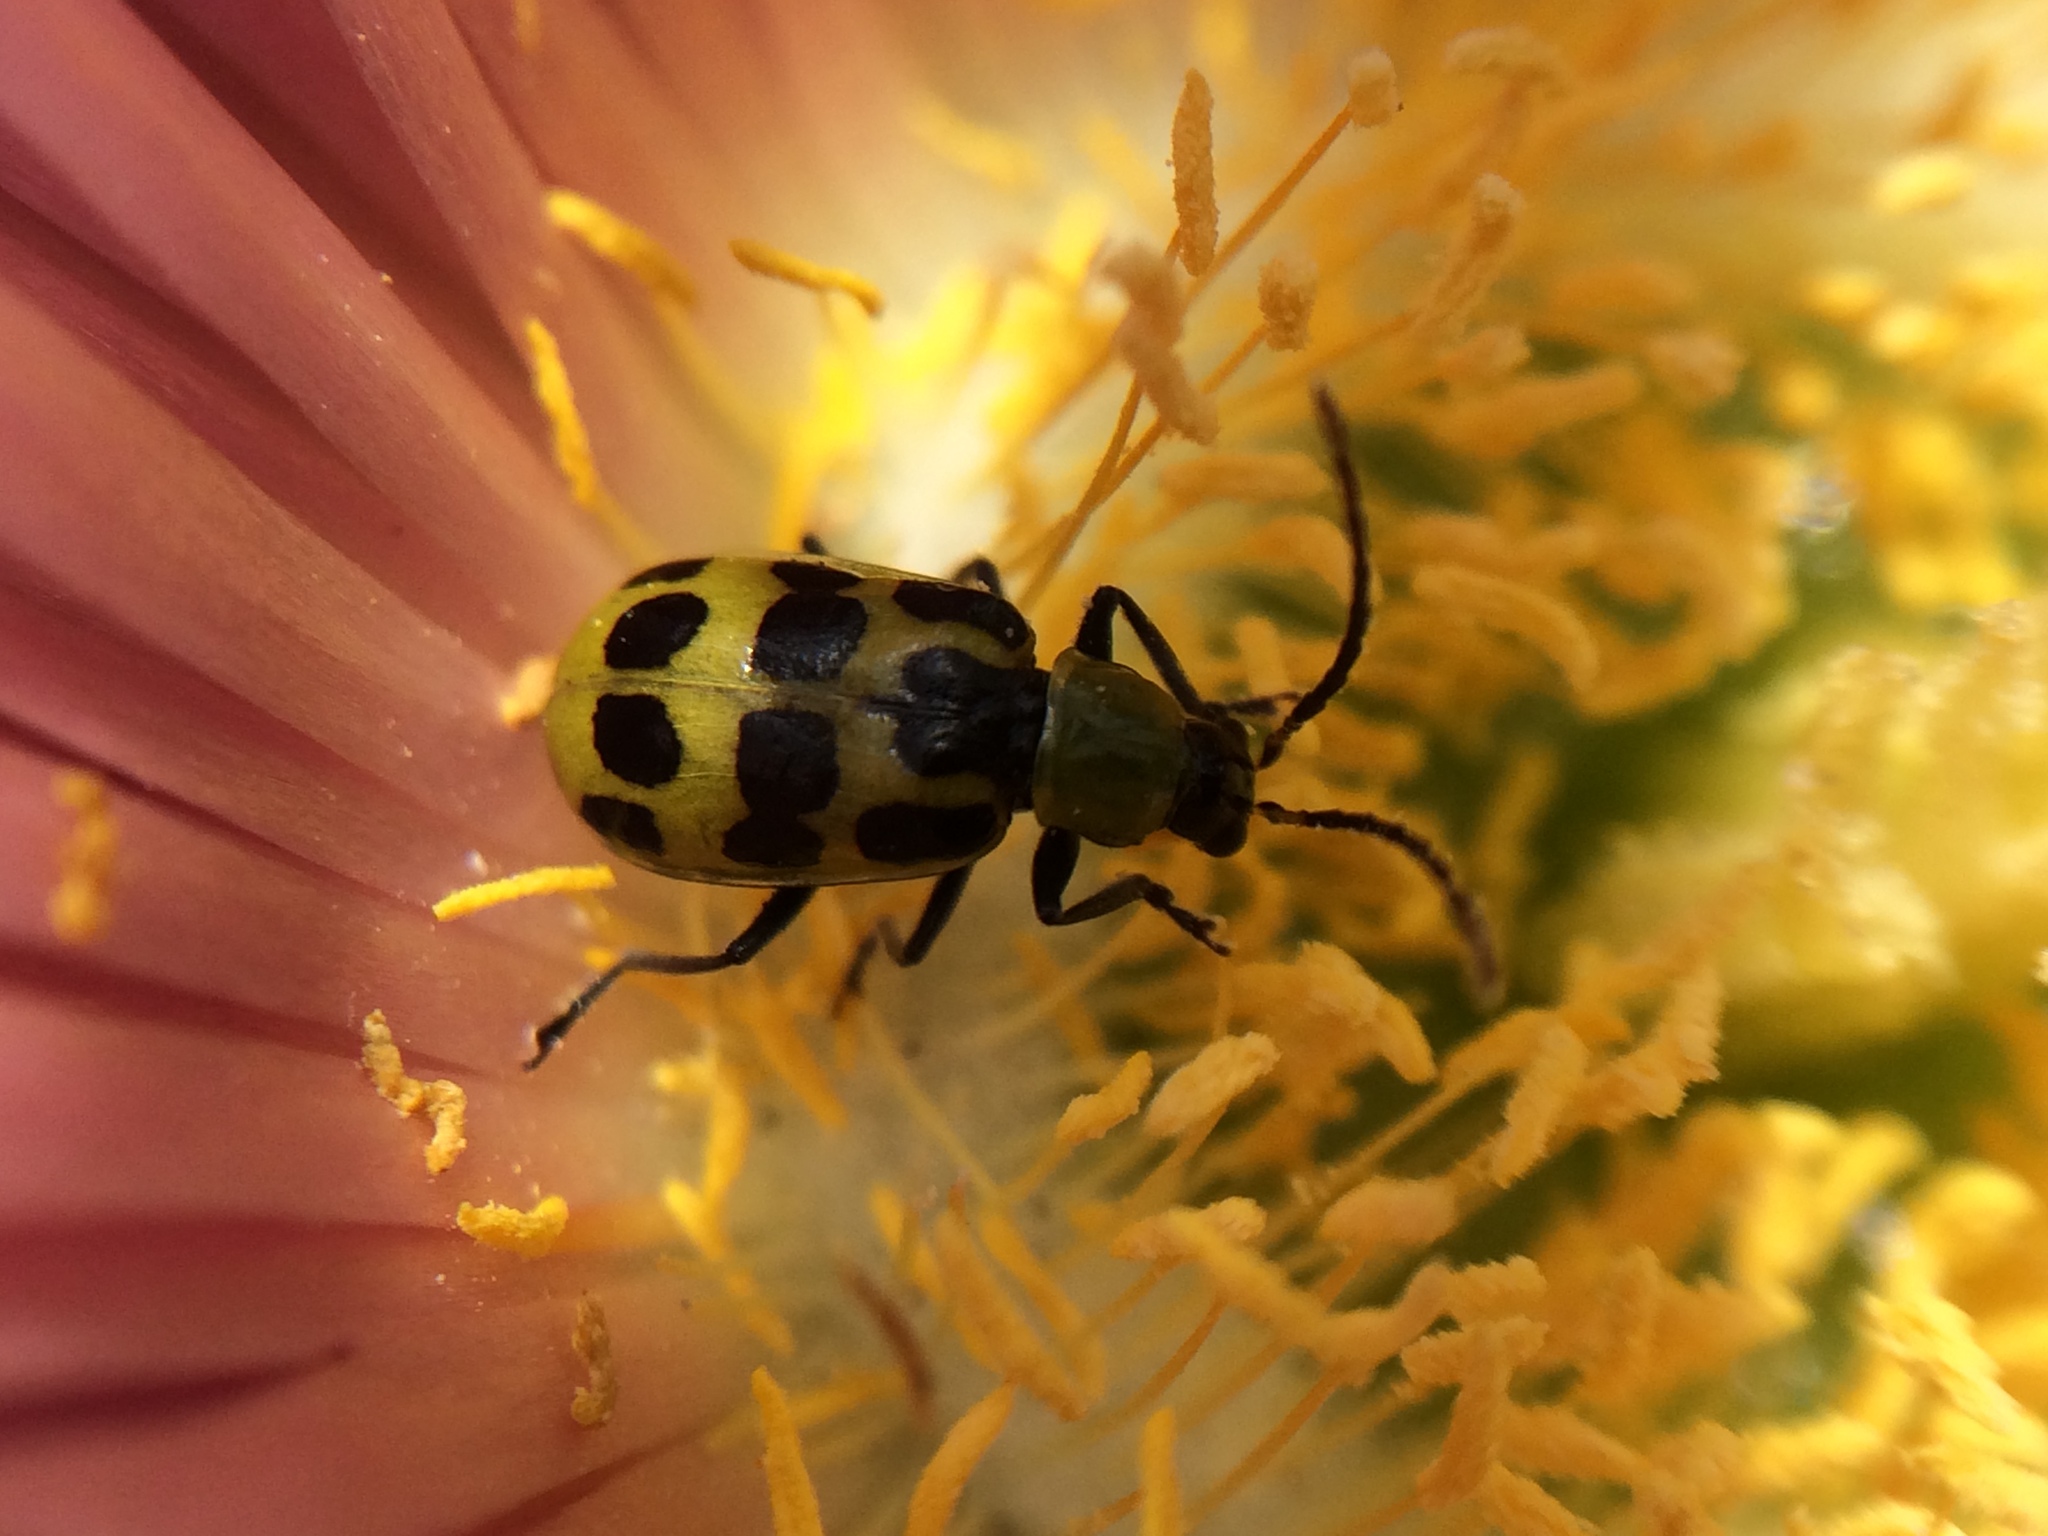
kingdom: Animalia
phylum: Arthropoda
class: Insecta
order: Coleoptera
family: Chrysomelidae
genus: Diabrotica
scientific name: Diabrotica undecimpunctata
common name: Spotted cucumber beetle
